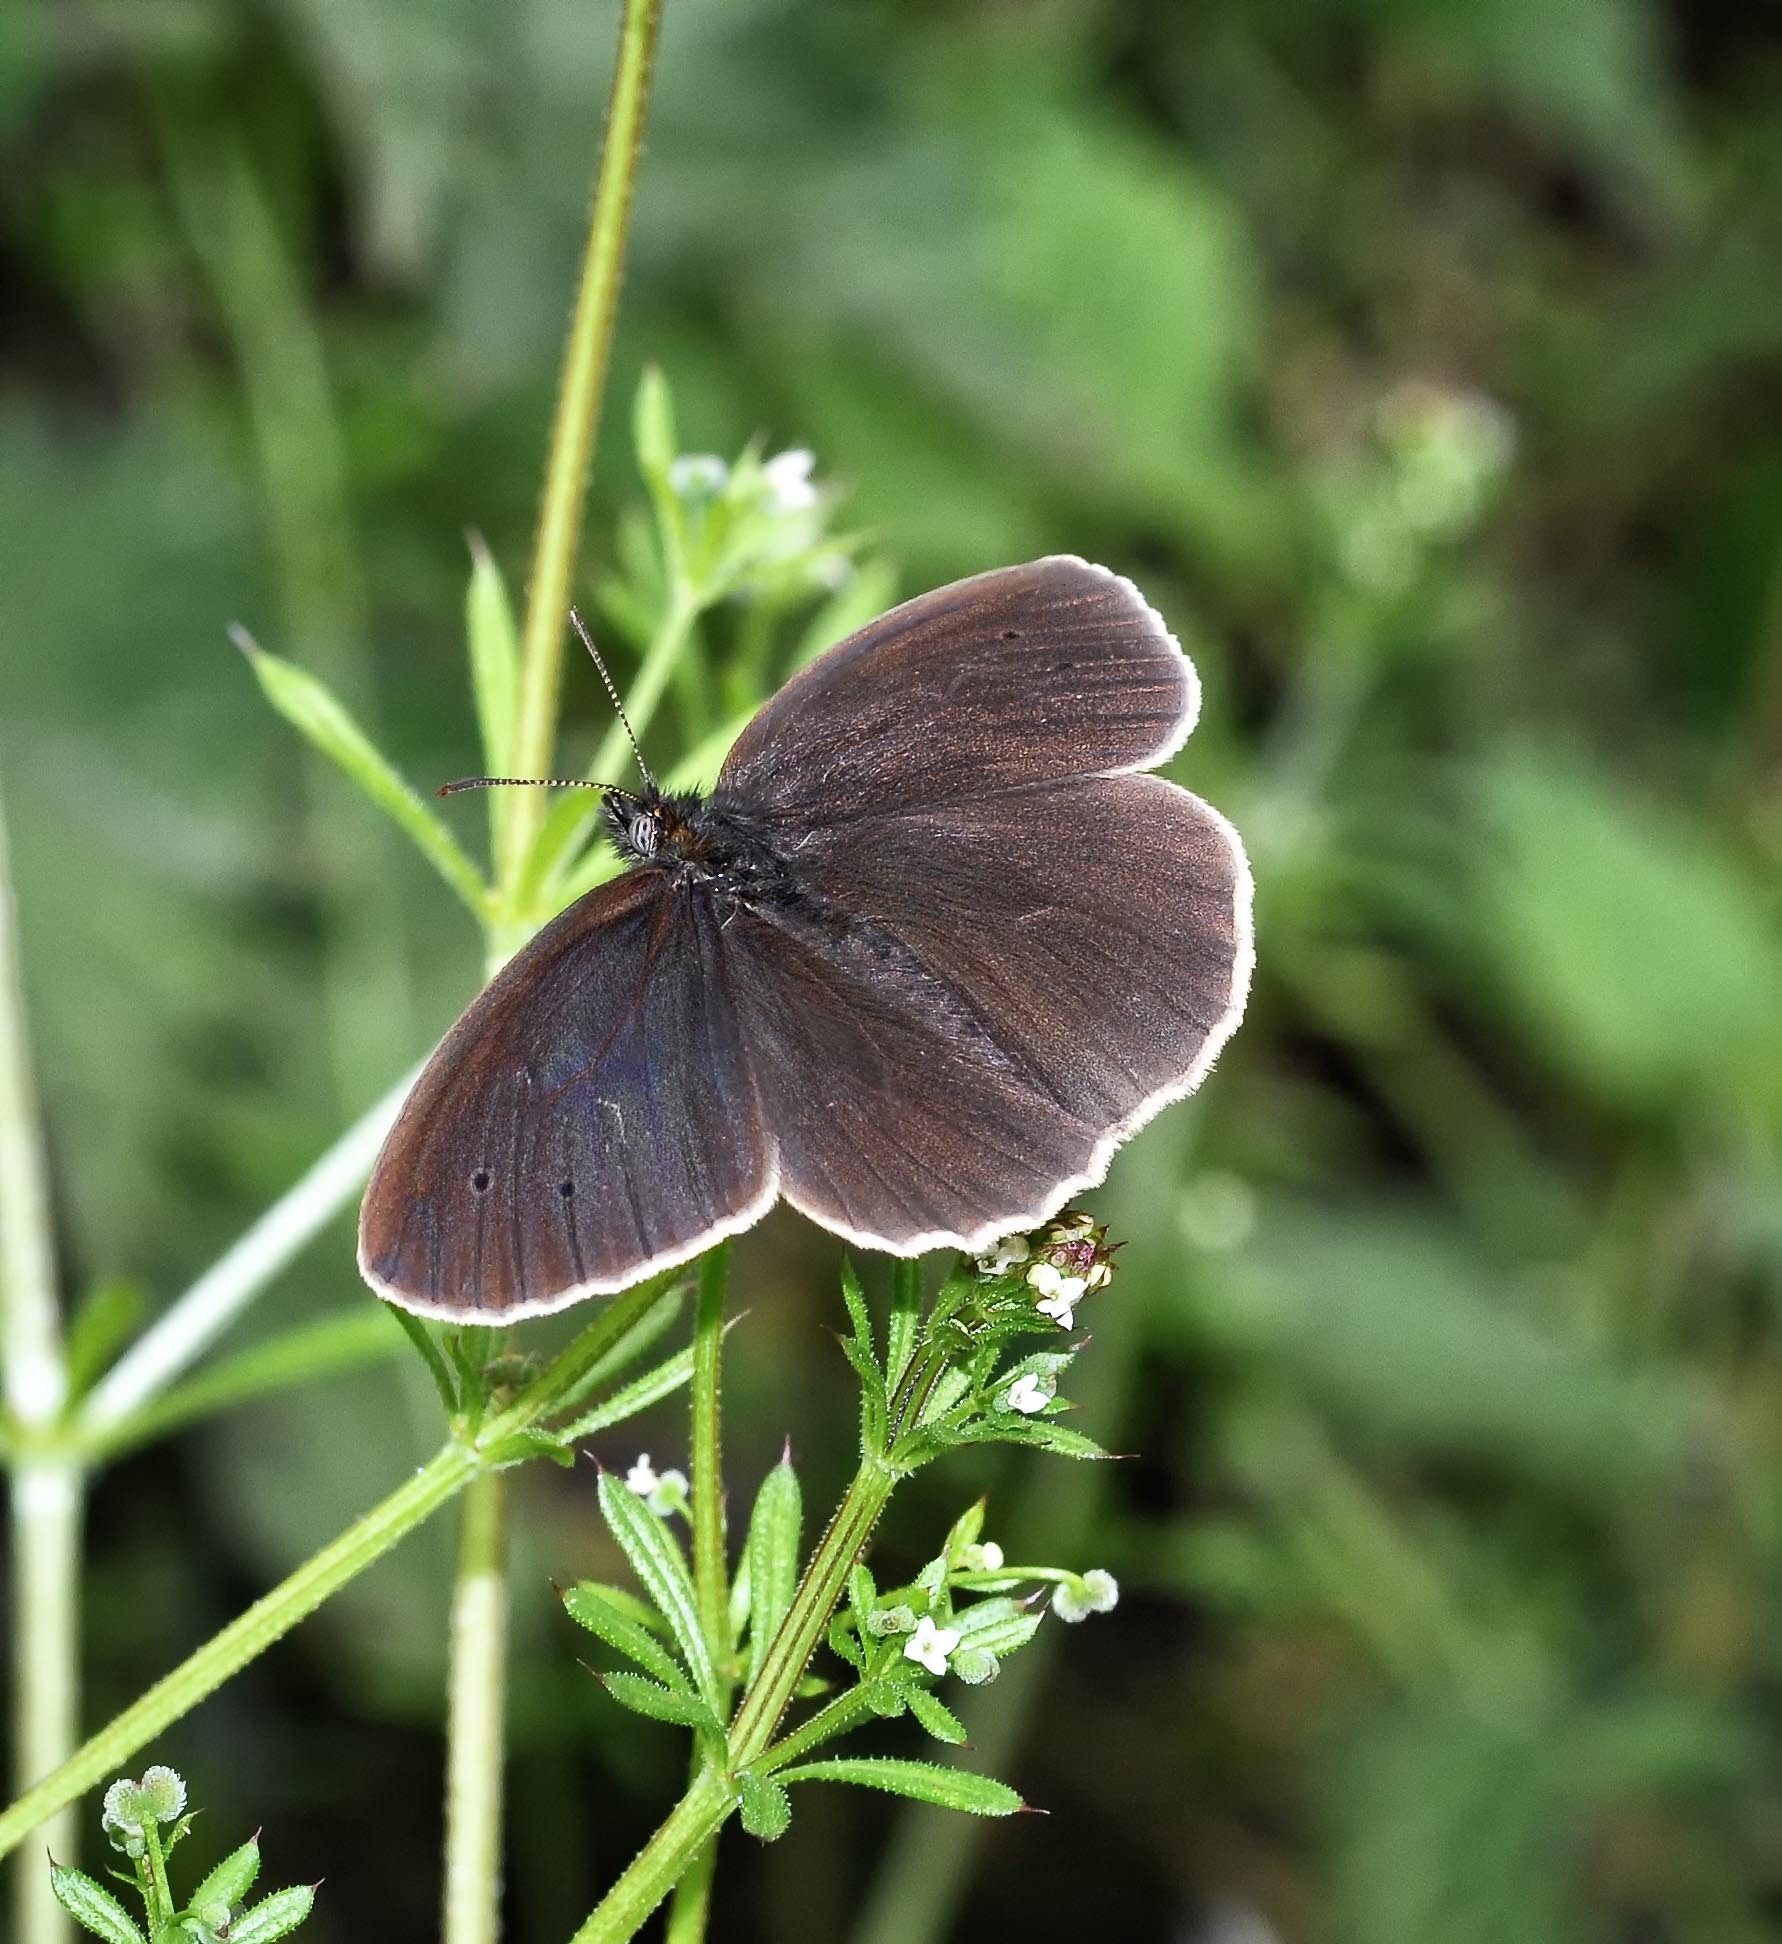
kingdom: Animalia
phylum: Arthropoda
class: Insecta
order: Lepidoptera
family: Nymphalidae
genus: Aphantopus
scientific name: Aphantopus hyperantus
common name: Ringlet
